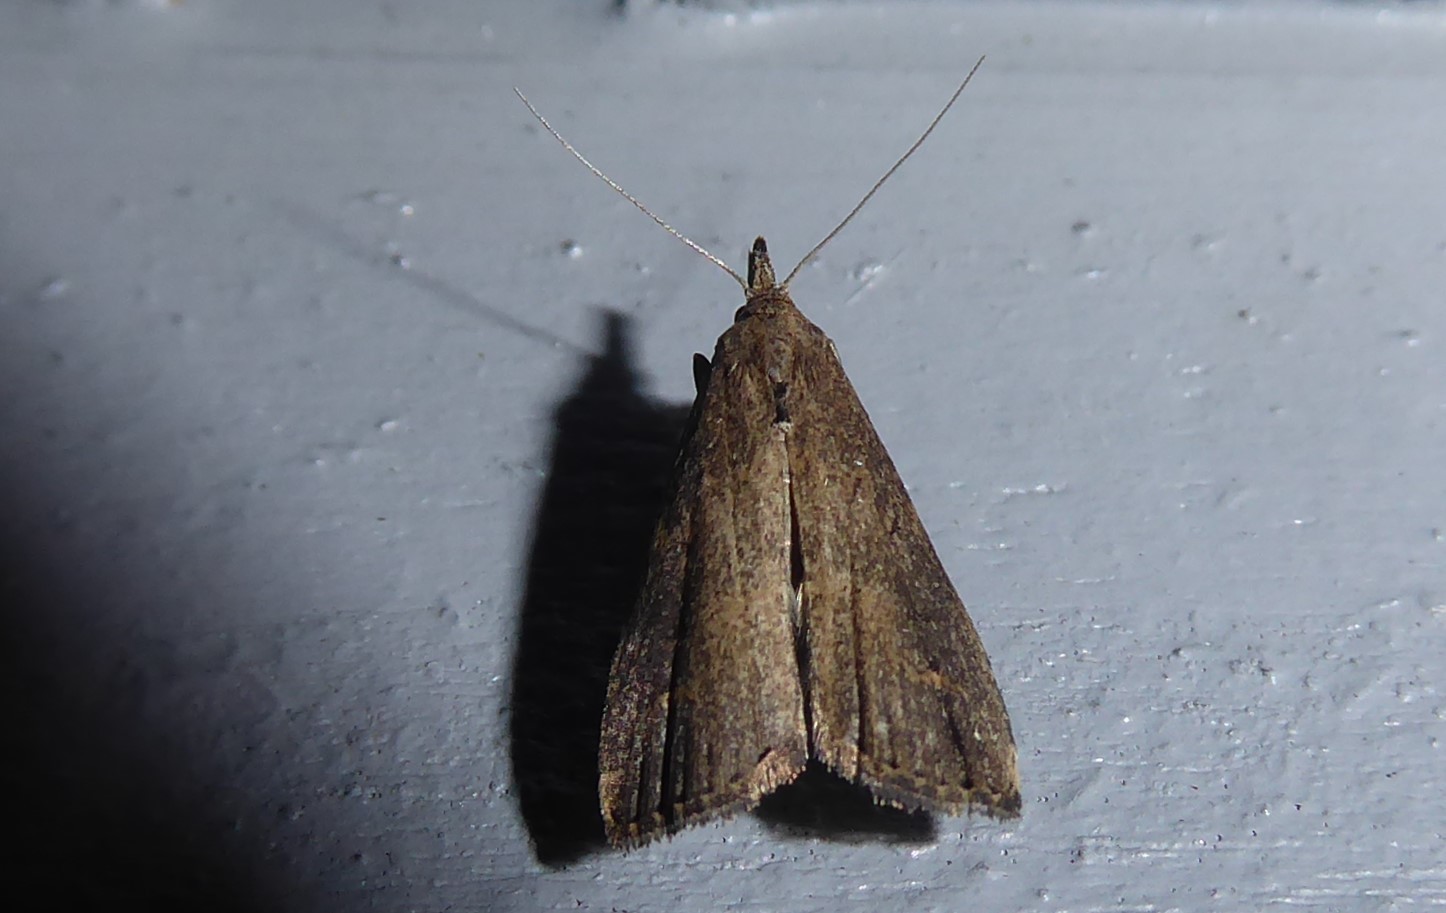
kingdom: Animalia
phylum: Arthropoda
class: Insecta
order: Lepidoptera
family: Erebidae
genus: Schrankia
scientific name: Schrankia costaestrigalis
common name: Pinion-streaked snout
